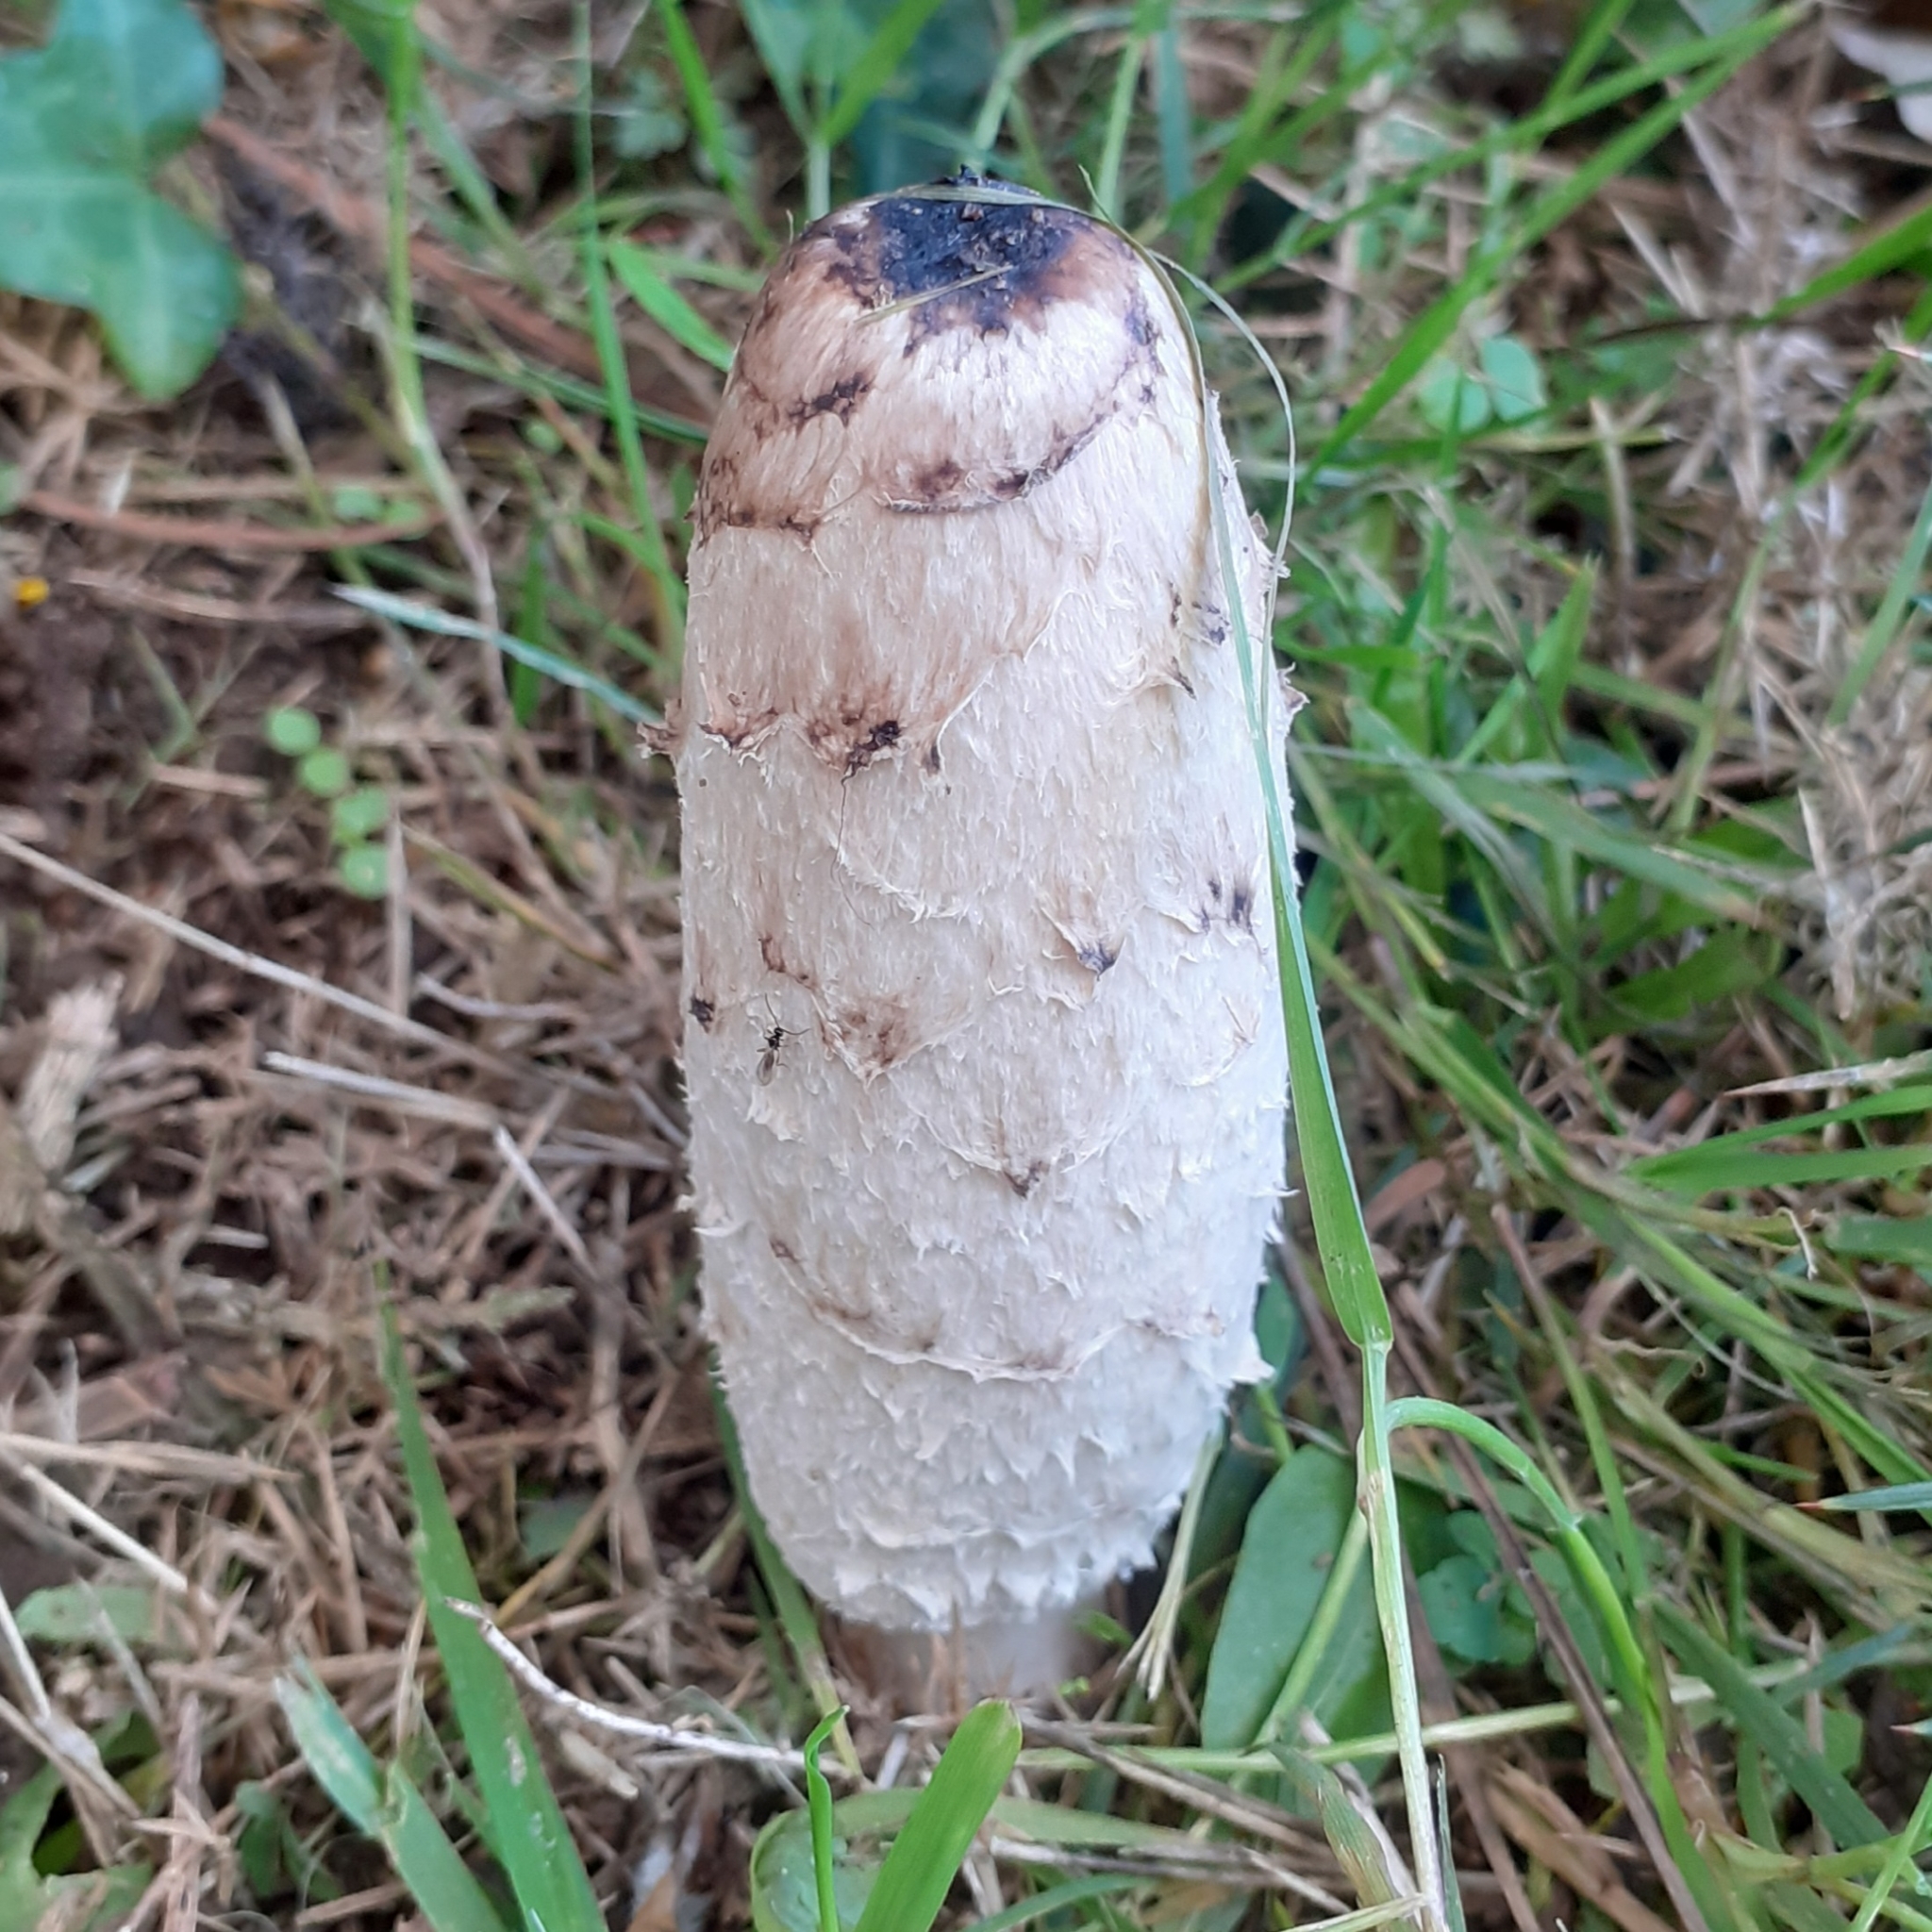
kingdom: Fungi
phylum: Basidiomycota
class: Agaricomycetes
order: Agaricales
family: Agaricaceae
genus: Coprinus
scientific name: Coprinus comatus
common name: Lawyer's wig
